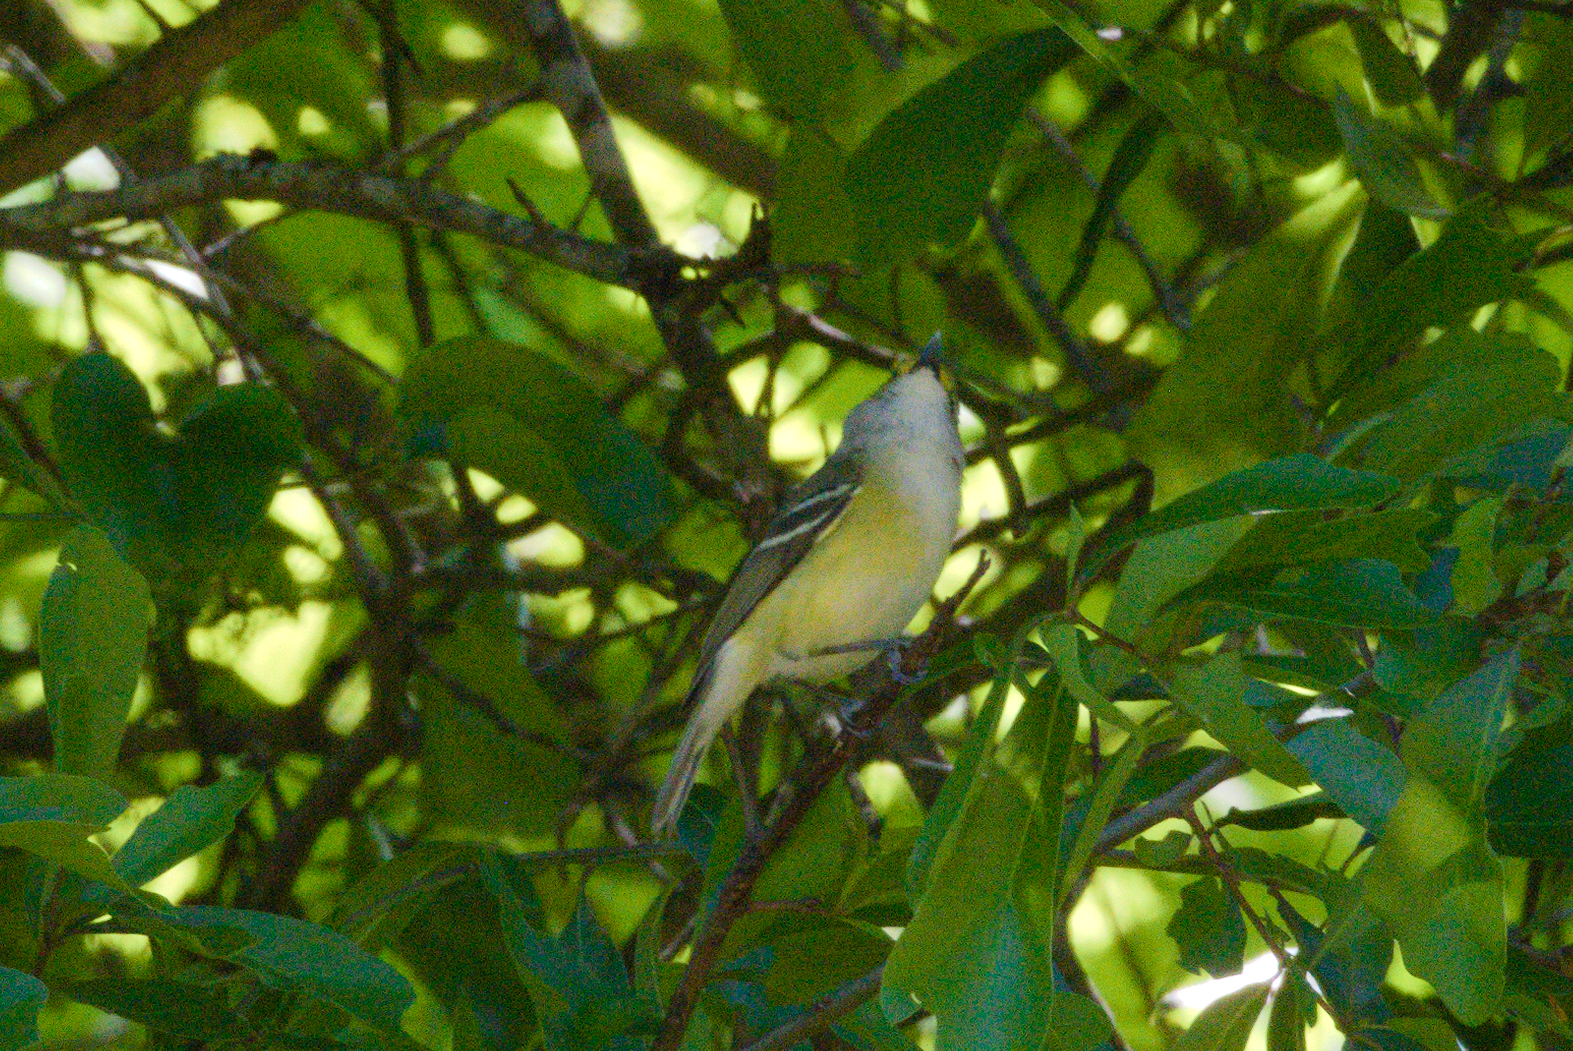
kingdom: Animalia
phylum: Chordata
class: Aves
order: Passeriformes
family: Vireonidae
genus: Vireo
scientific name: Vireo griseus
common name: White-eyed vireo
